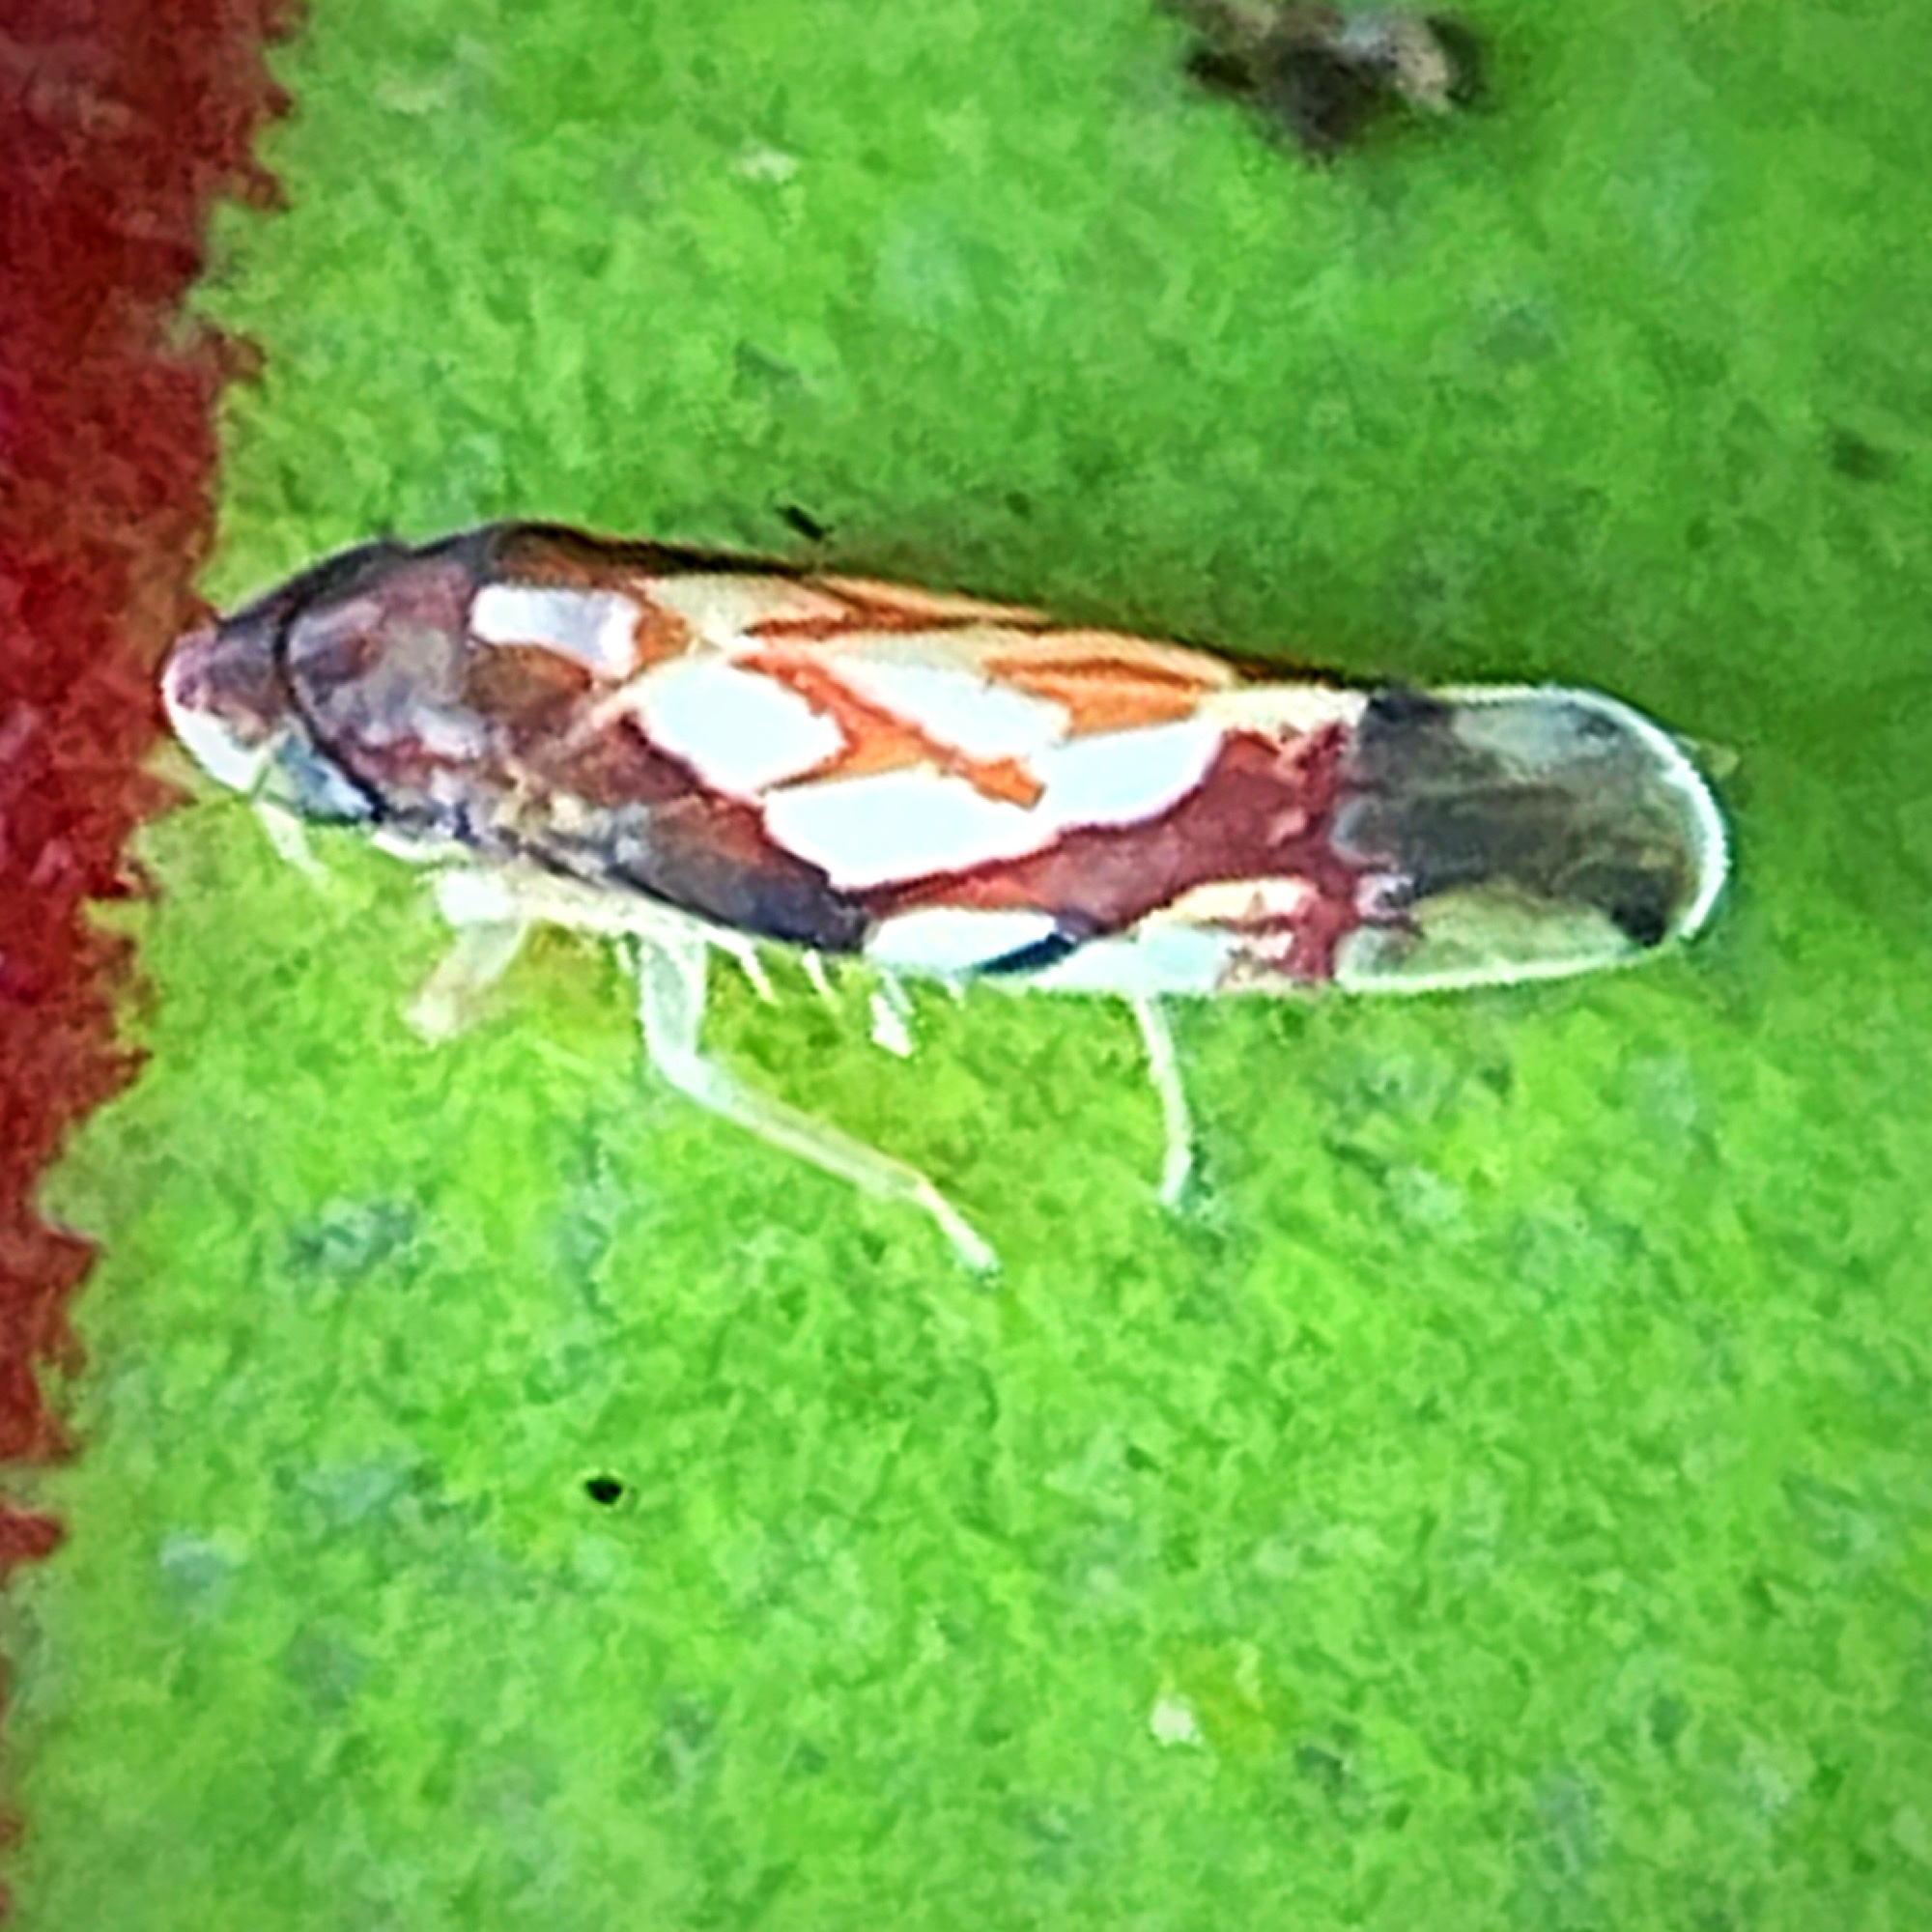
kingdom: Animalia
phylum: Arthropoda
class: Insecta
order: Hemiptera
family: Cicadellidae
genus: Erythroneura
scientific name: Erythroneura cancellata
